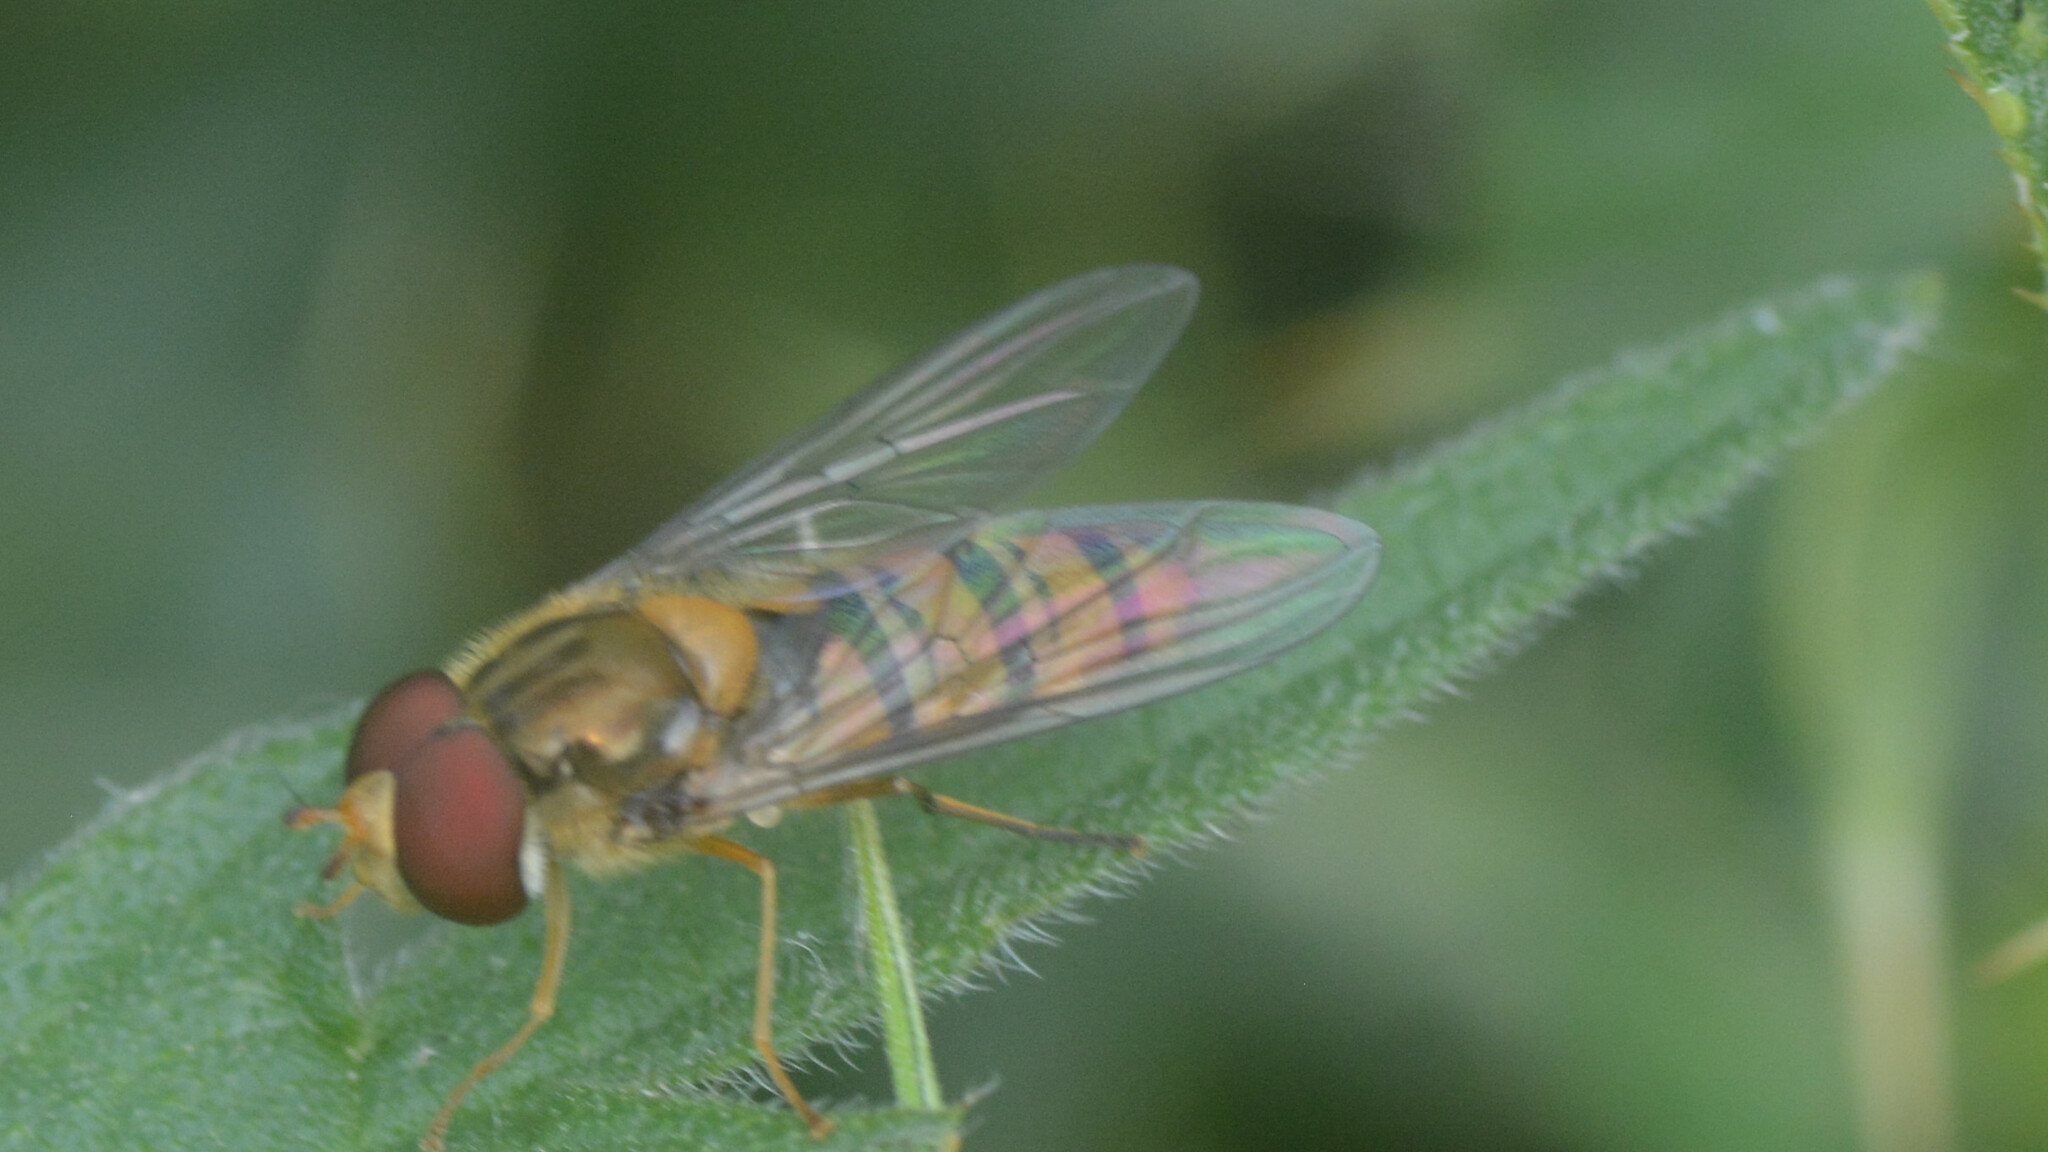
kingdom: Animalia
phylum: Arthropoda
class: Insecta
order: Diptera
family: Syrphidae
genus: Episyrphus
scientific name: Episyrphus balteatus
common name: Marmalade hoverfly
